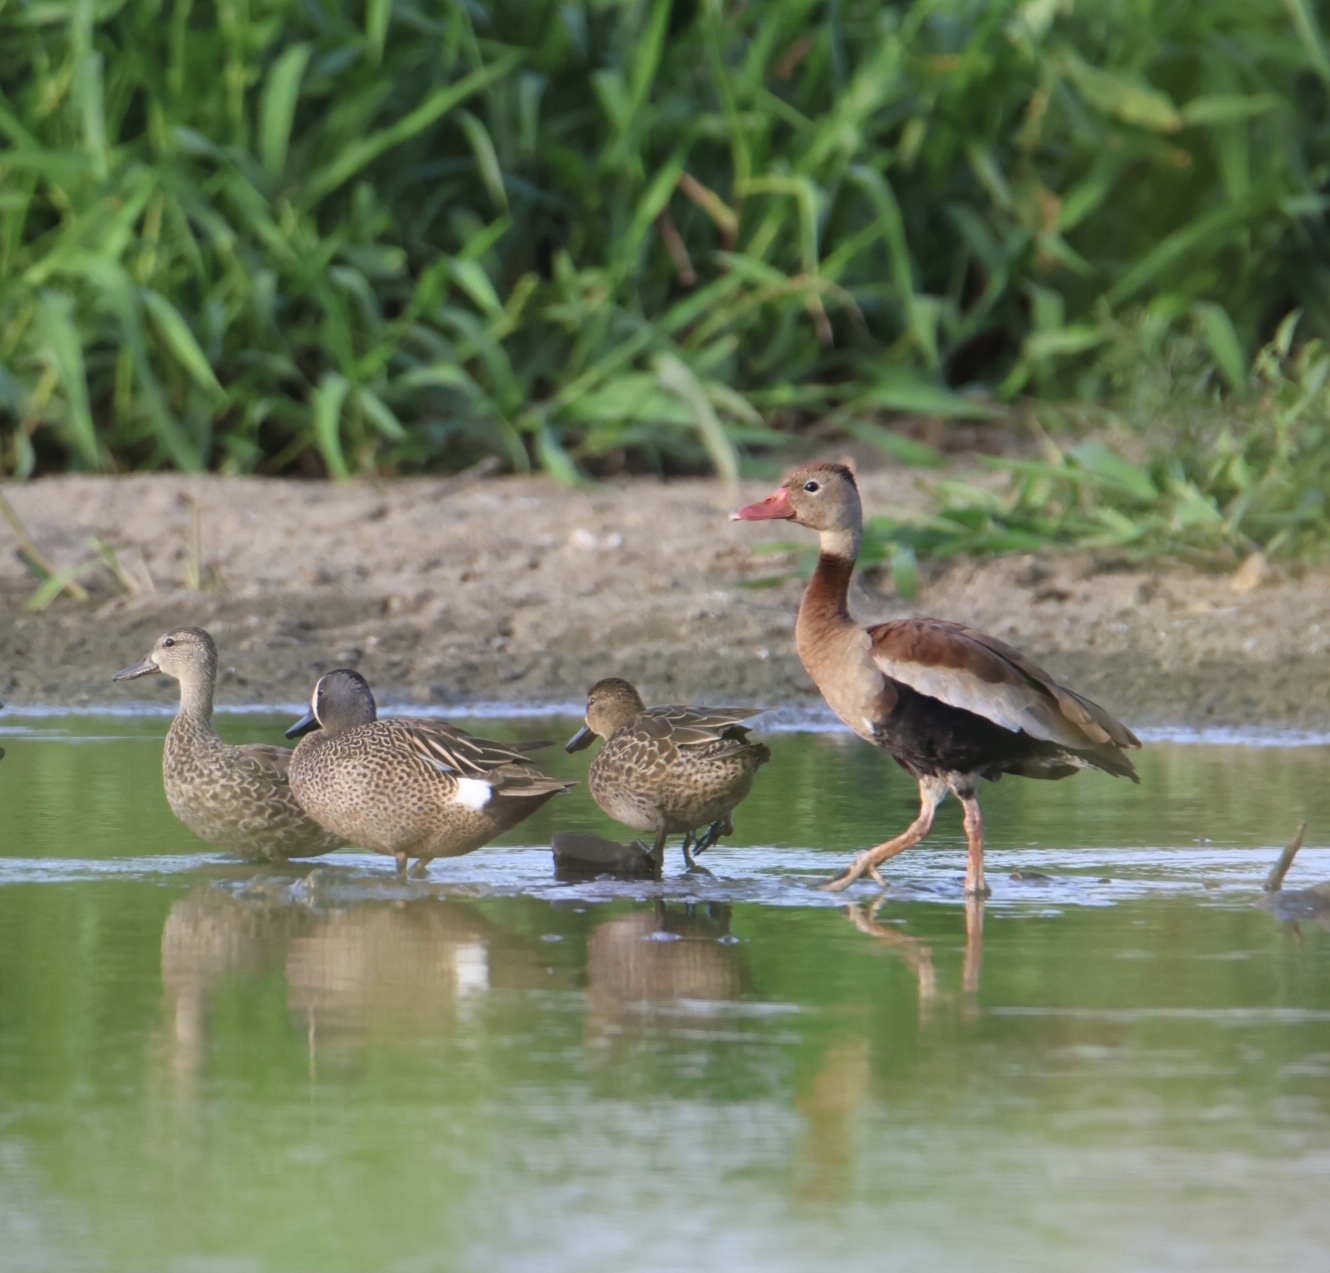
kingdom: Animalia
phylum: Chordata
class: Aves
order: Anseriformes
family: Anatidae
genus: Dendrocygna
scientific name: Dendrocygna autumnalis
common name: Black-bellied whistling duck
